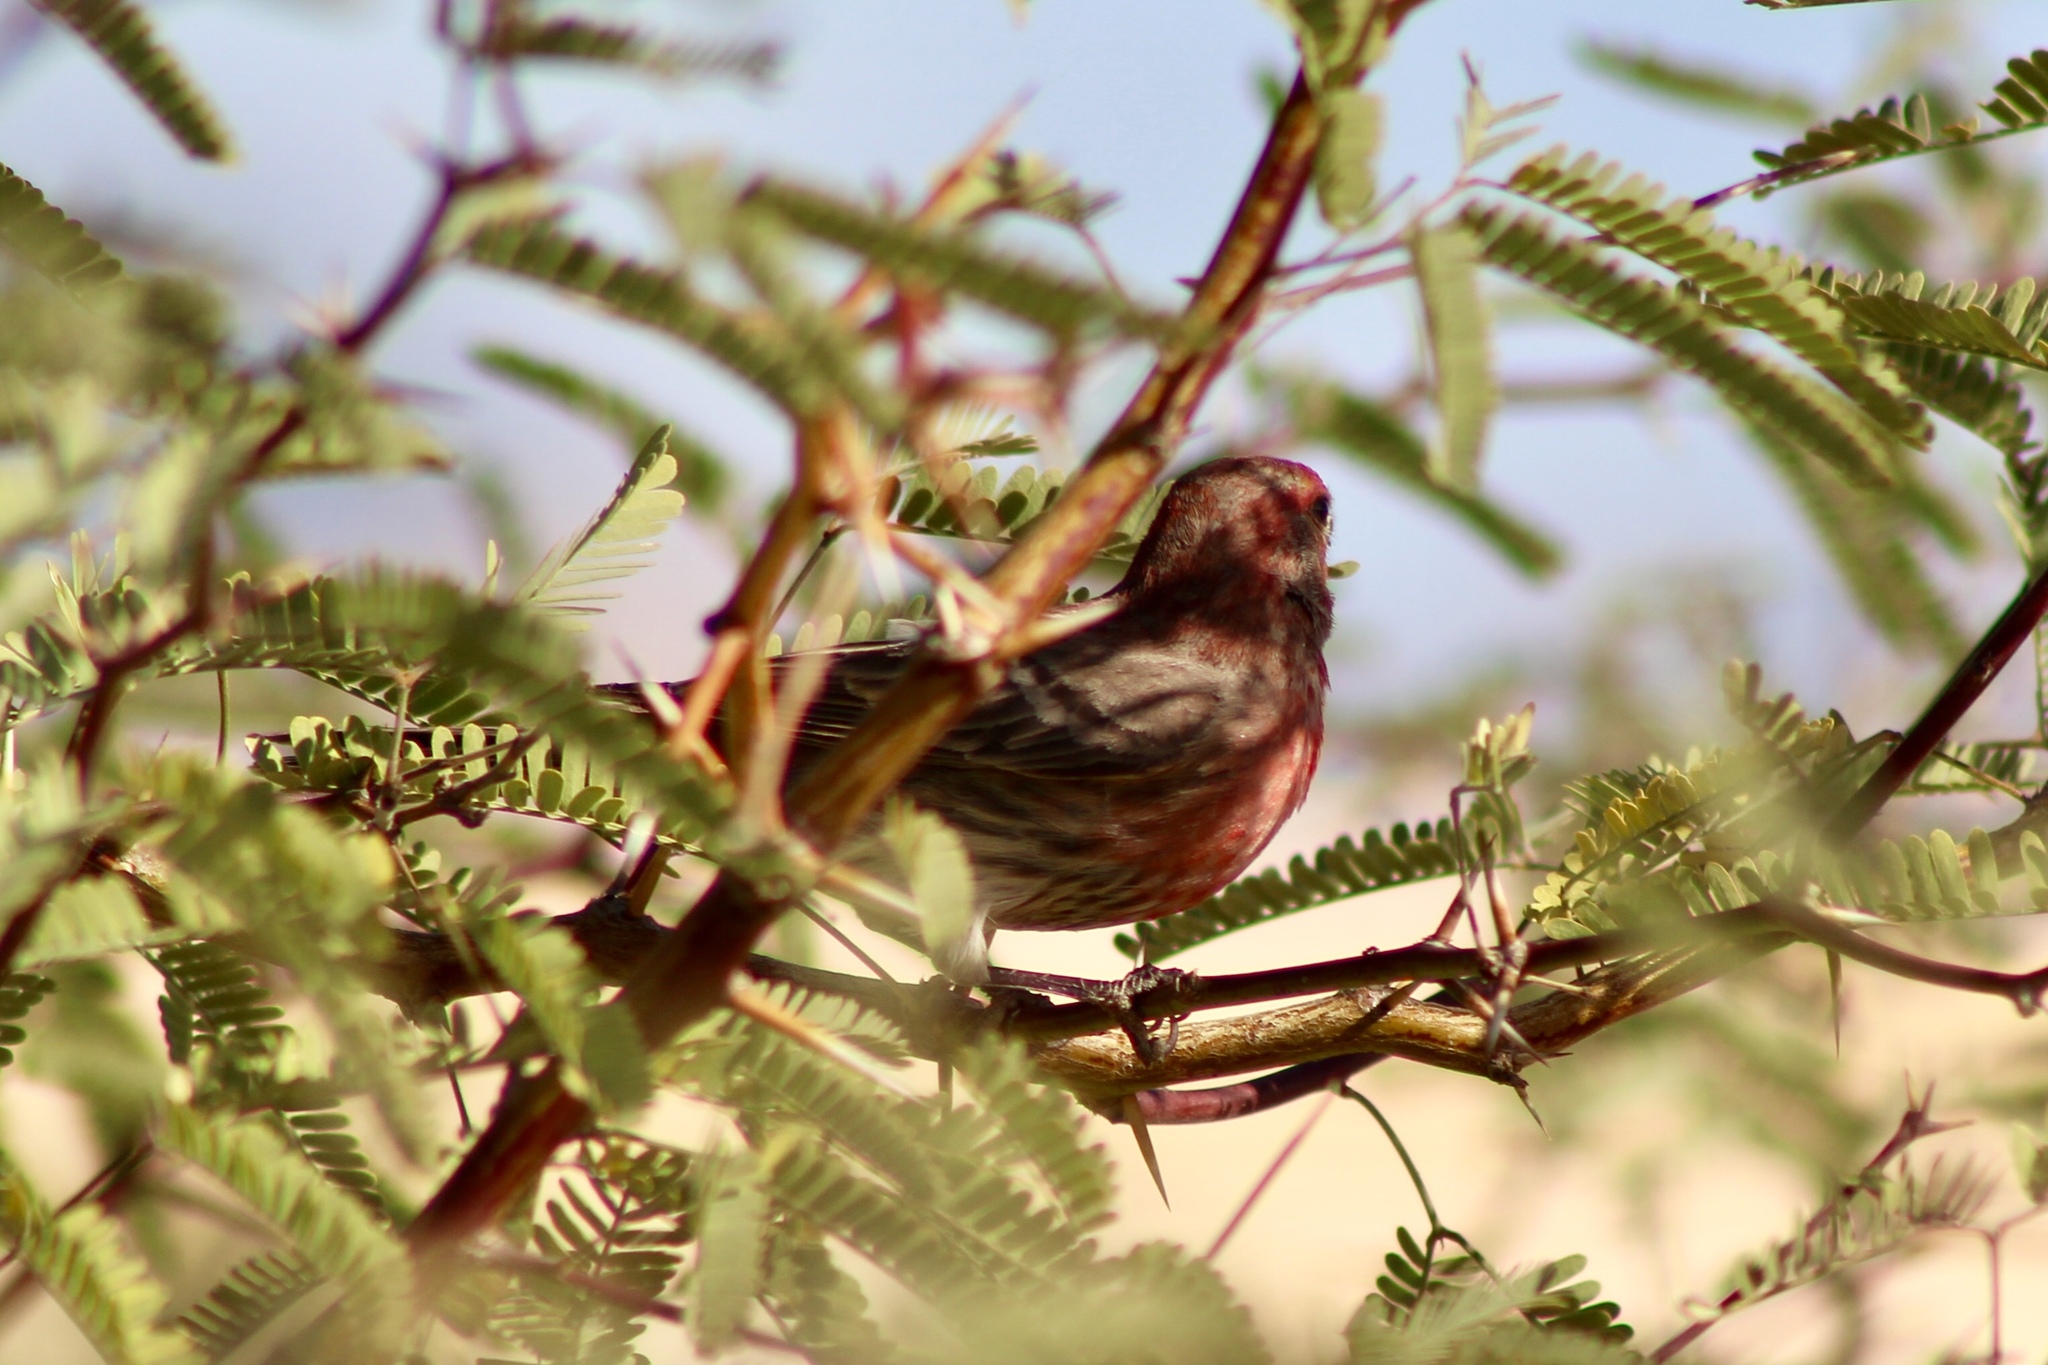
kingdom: Animalia
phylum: Chordata
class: Aves
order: Passeriformes
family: Fringillidae
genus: Haemorhous
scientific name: Haemorhous mexicanus
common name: House finch
